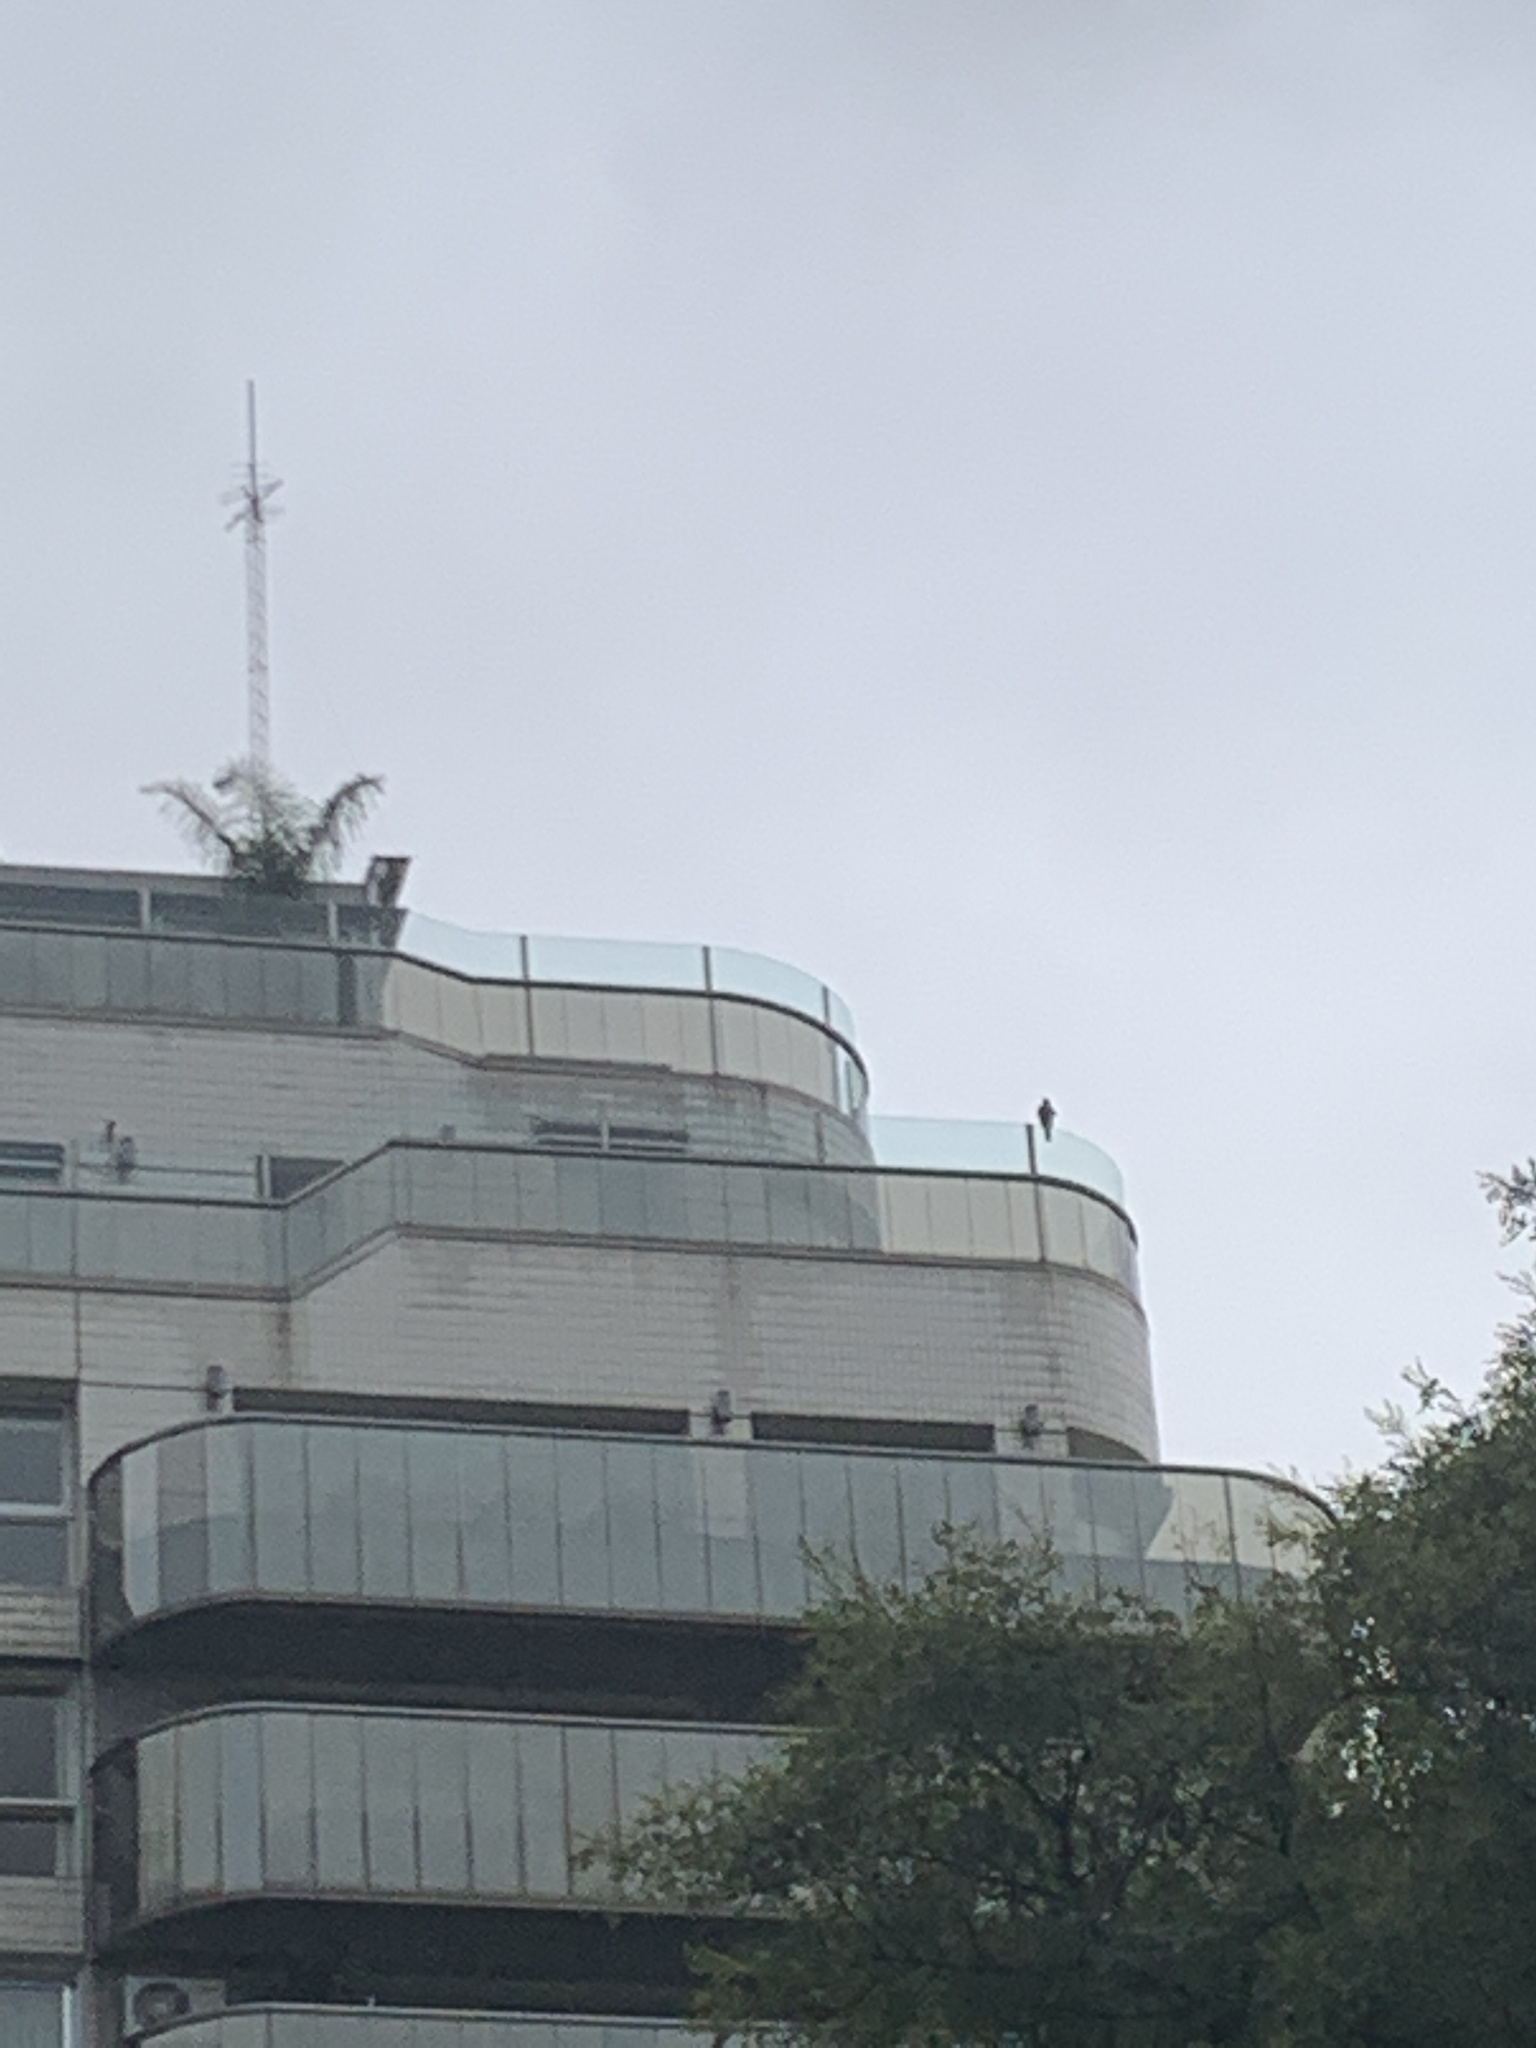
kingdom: Animalia
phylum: Chordata
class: Aves
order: Accipitriformes
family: Accipitridae
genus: Parabuteo
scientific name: Parabuteo unicinctus
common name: Harris's hawk
